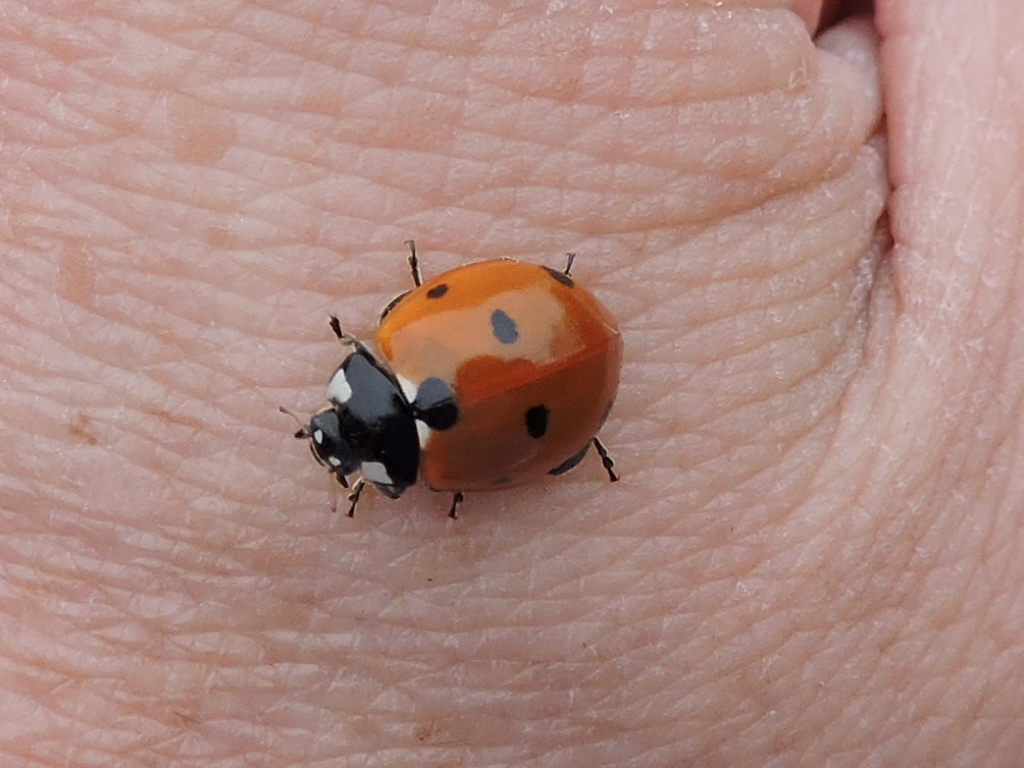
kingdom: Animalia
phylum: Arthropoda
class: Insecta
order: Coleoptera
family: Coccinellidae
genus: Coccinella
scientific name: Coccinella septempunctata
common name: Sevenspotted lady beetle
